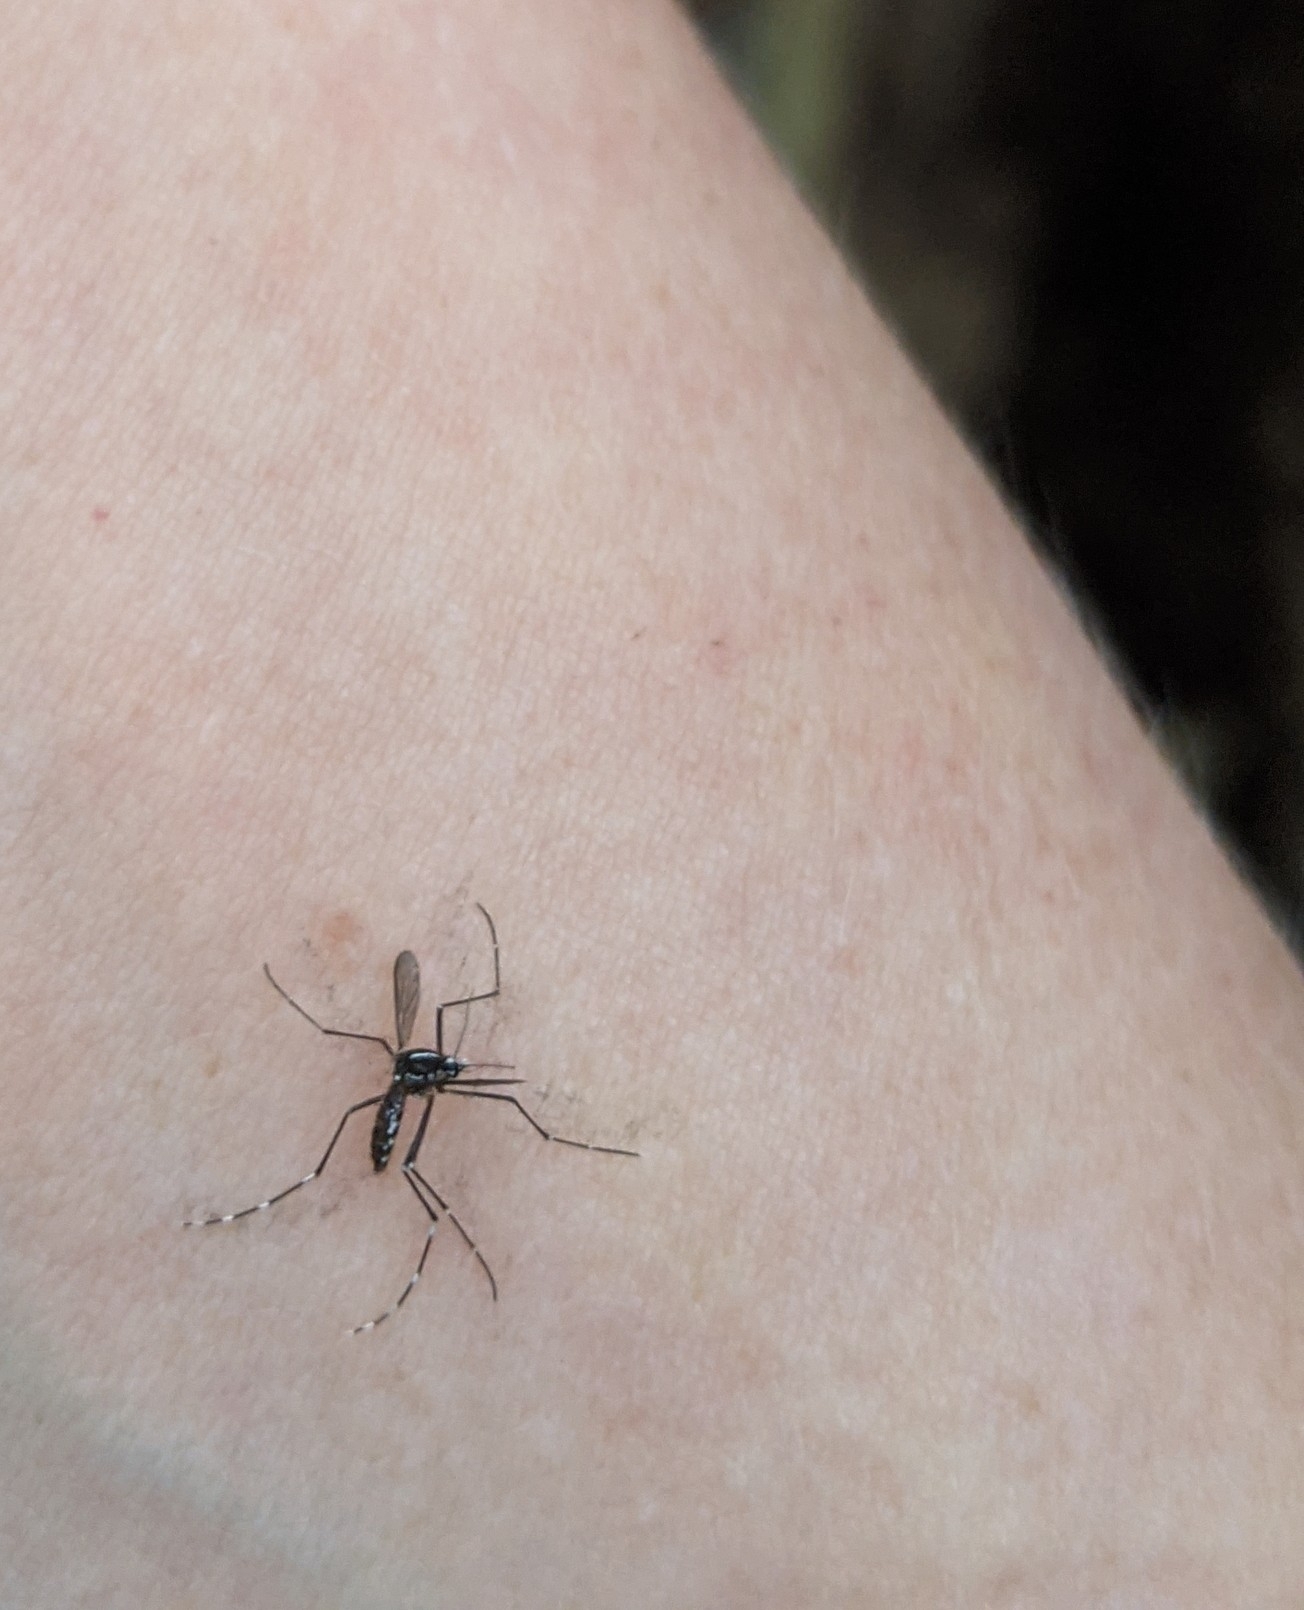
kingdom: Animalia
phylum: Arthropoda
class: Insecta
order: Diptera
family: Culicidae
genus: Aedes
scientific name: Aedes albopictus
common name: Tiger mosquito
